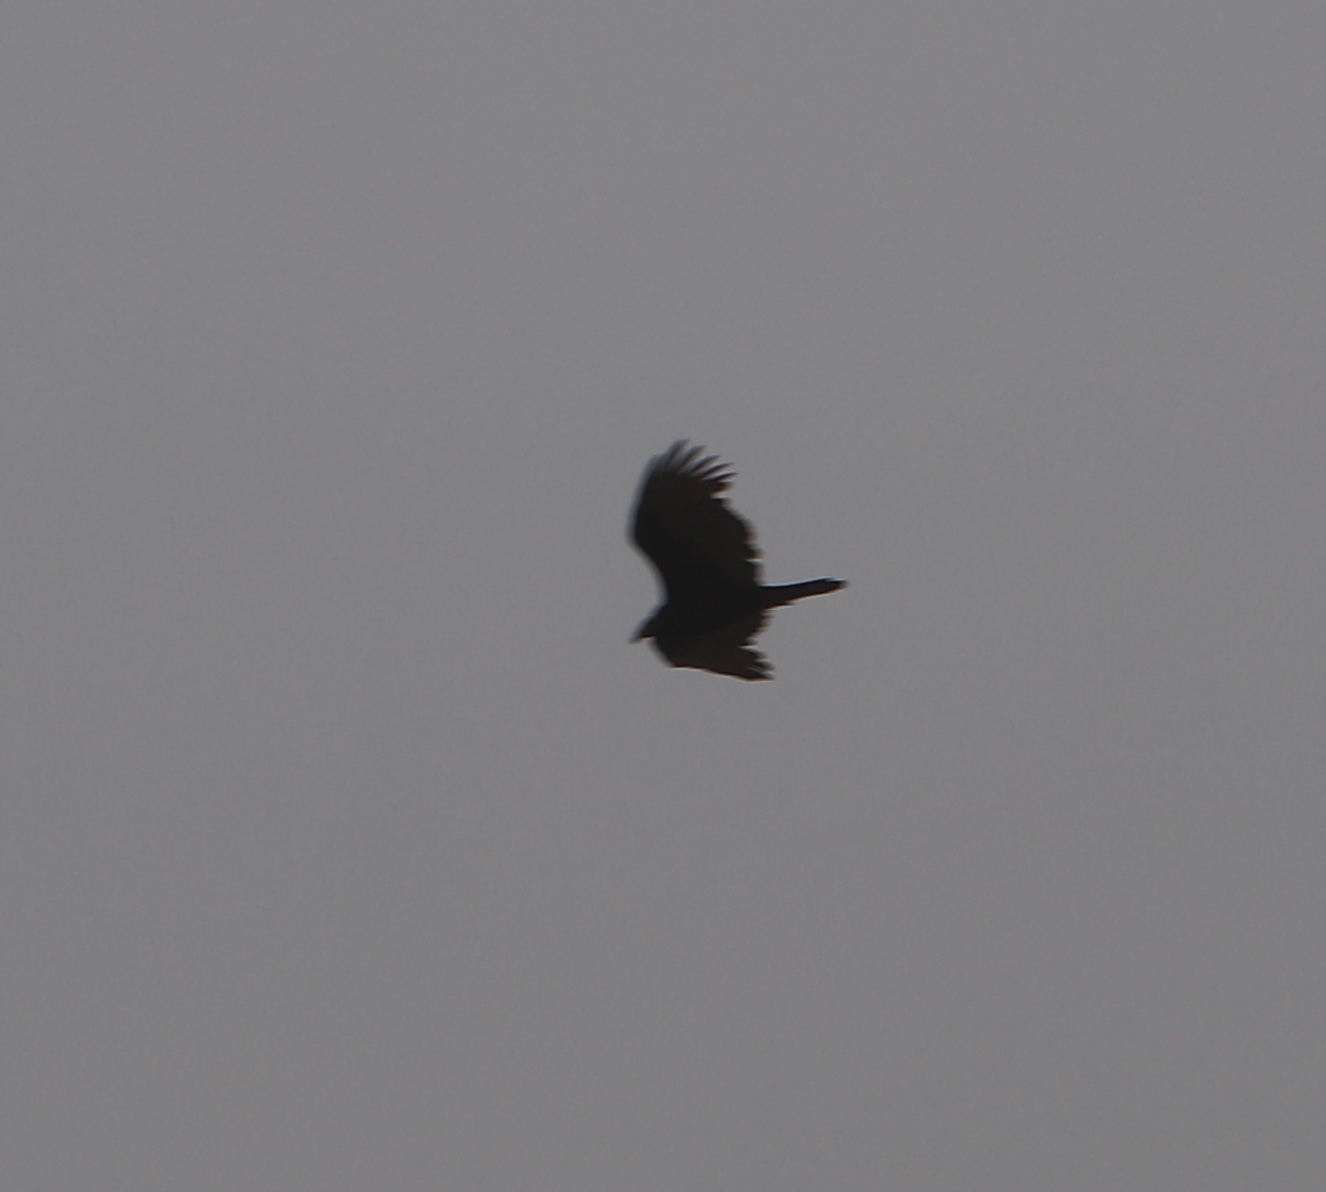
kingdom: Animalia
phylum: Chordata
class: Aves
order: Accipitriformes
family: Cathartidae
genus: Cathartes
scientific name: Cathartes aura
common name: Turkey vulture
